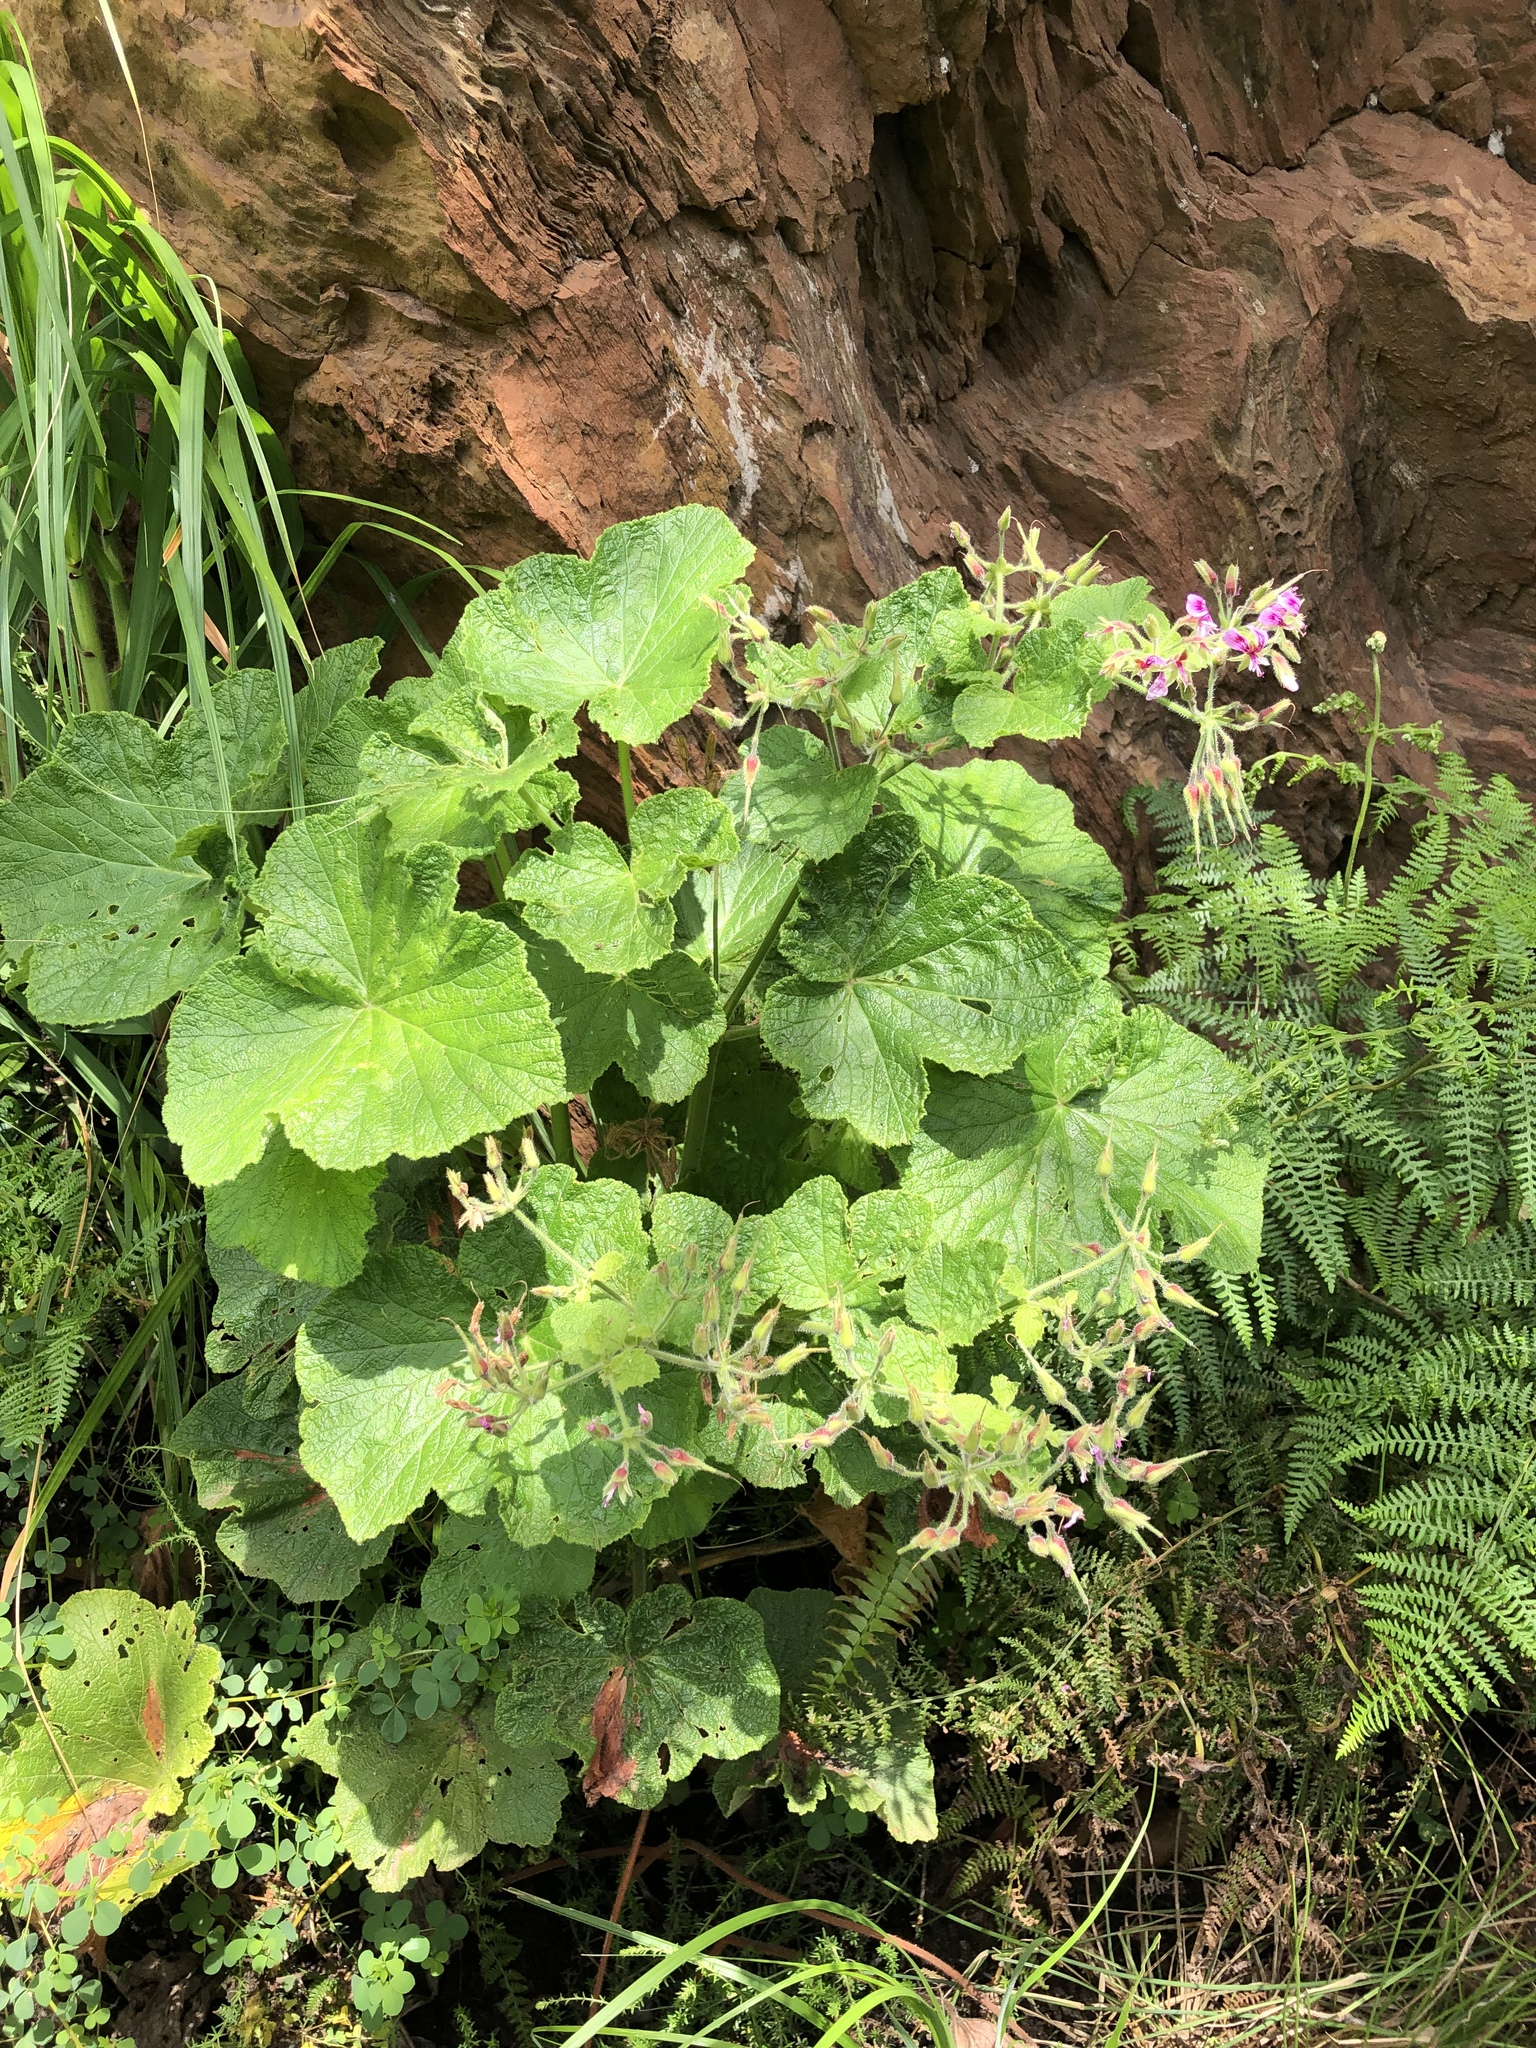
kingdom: Plantae
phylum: Tracheophyta
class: Magnoliopsida
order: Geraniales
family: Geraniaceae
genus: Pelargonium
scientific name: Pelargonium papilionaceum
